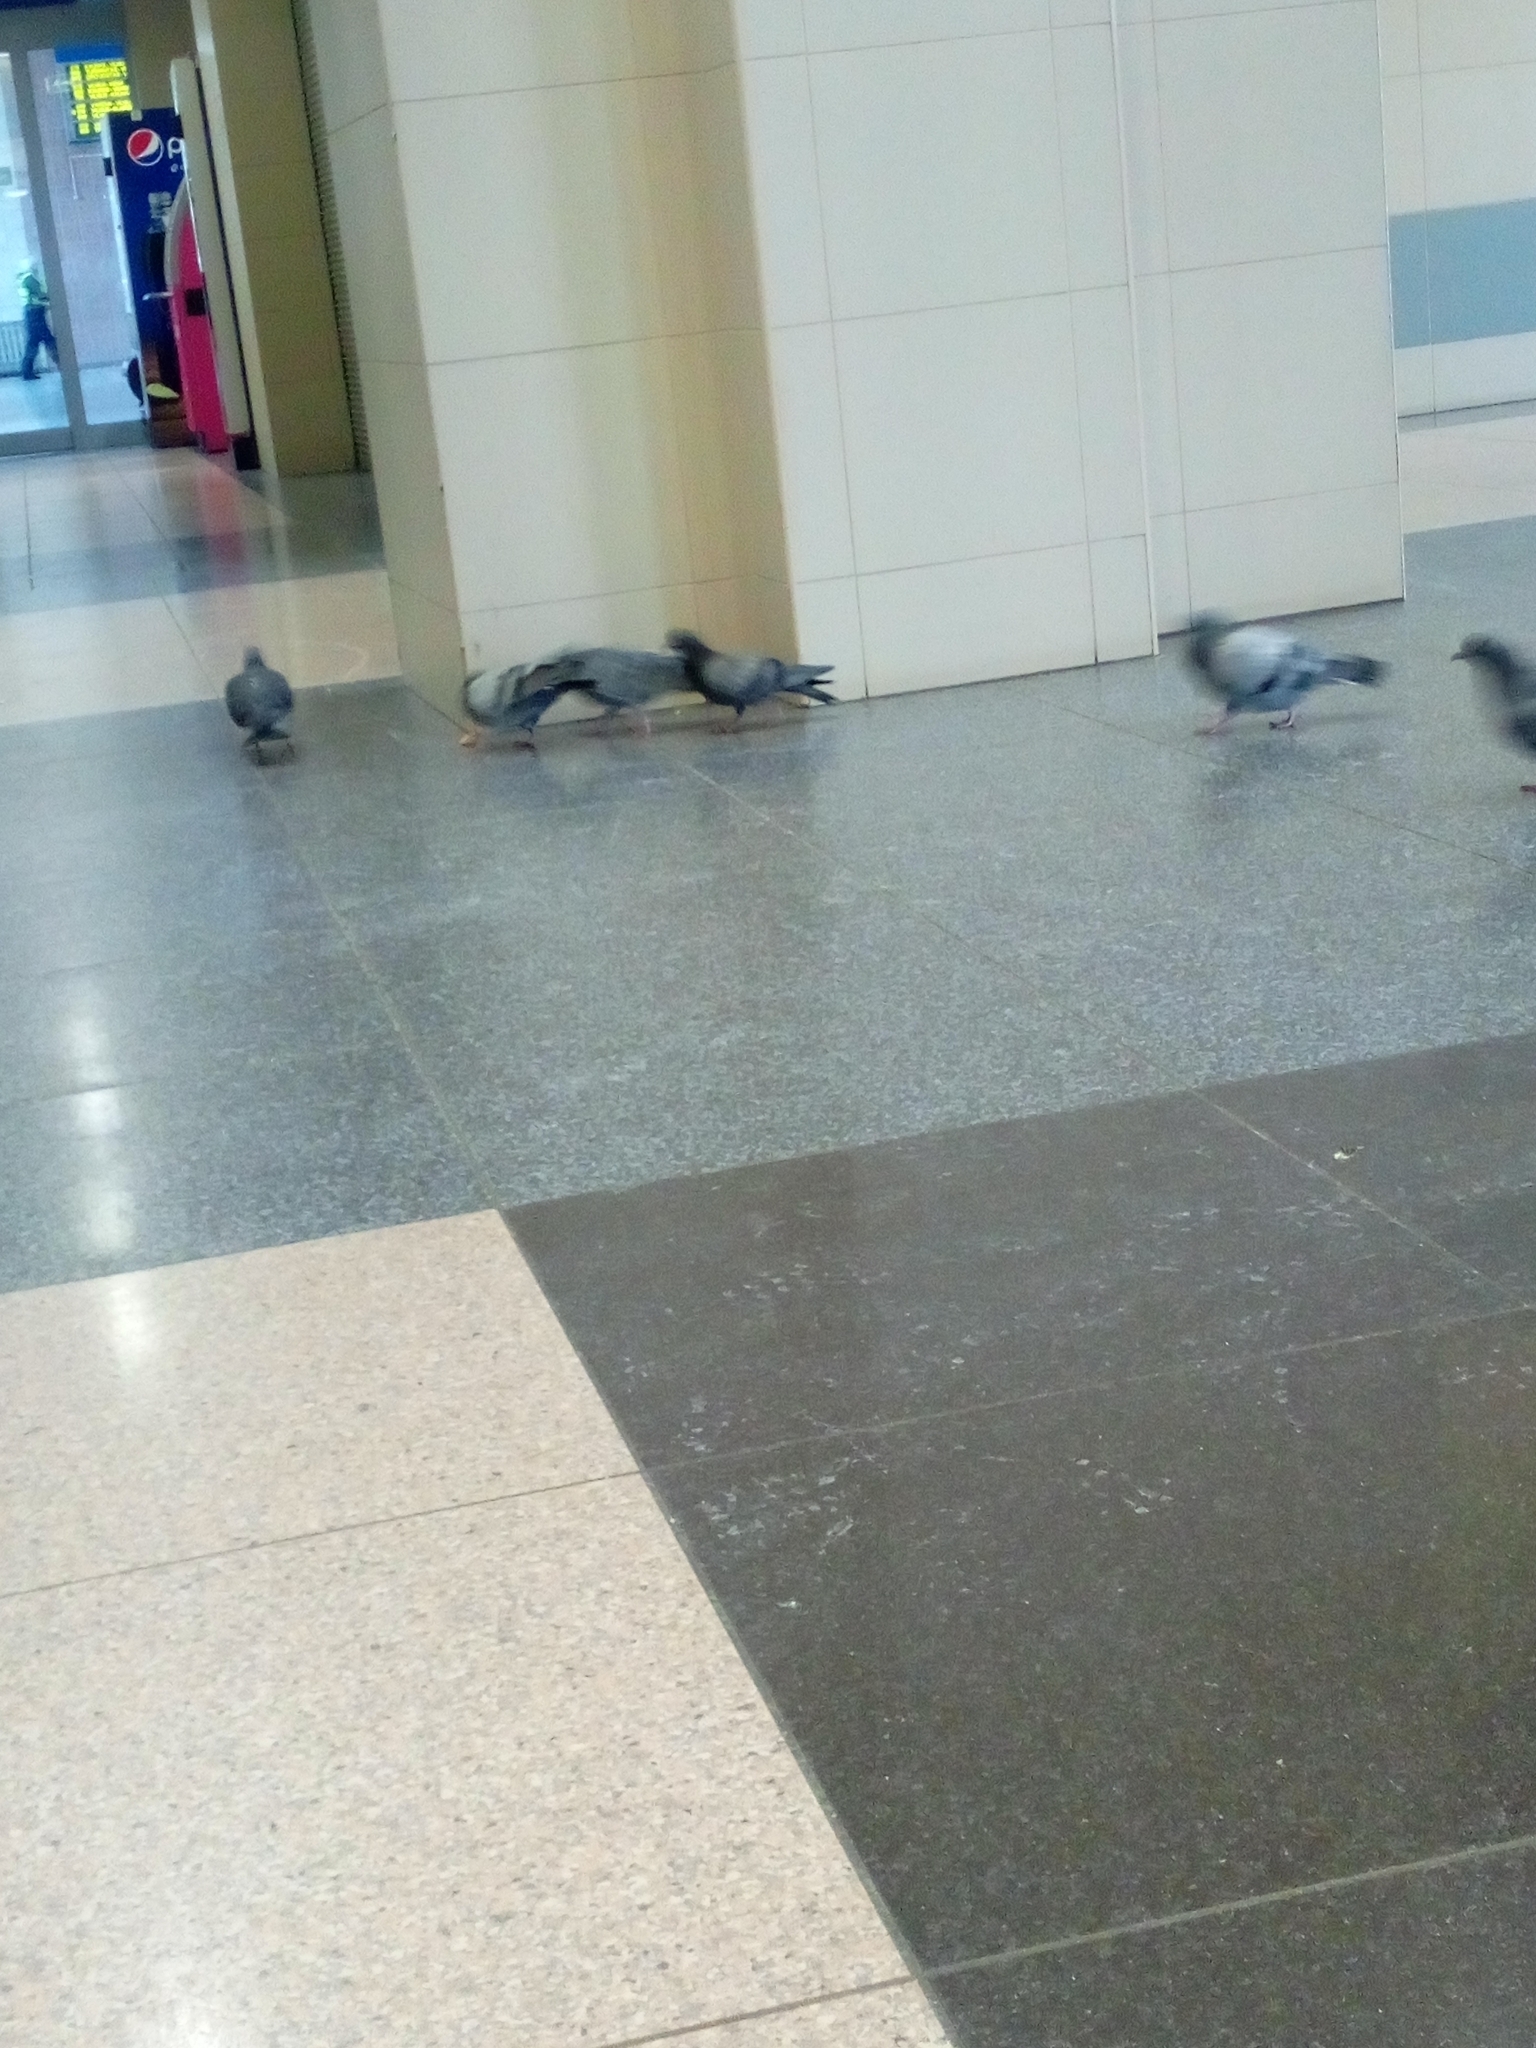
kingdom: Animalia
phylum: Chordata
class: Aves
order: Columbiformes
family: Columbidae
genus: Columba
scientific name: Columba livia
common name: Rock pigeon
